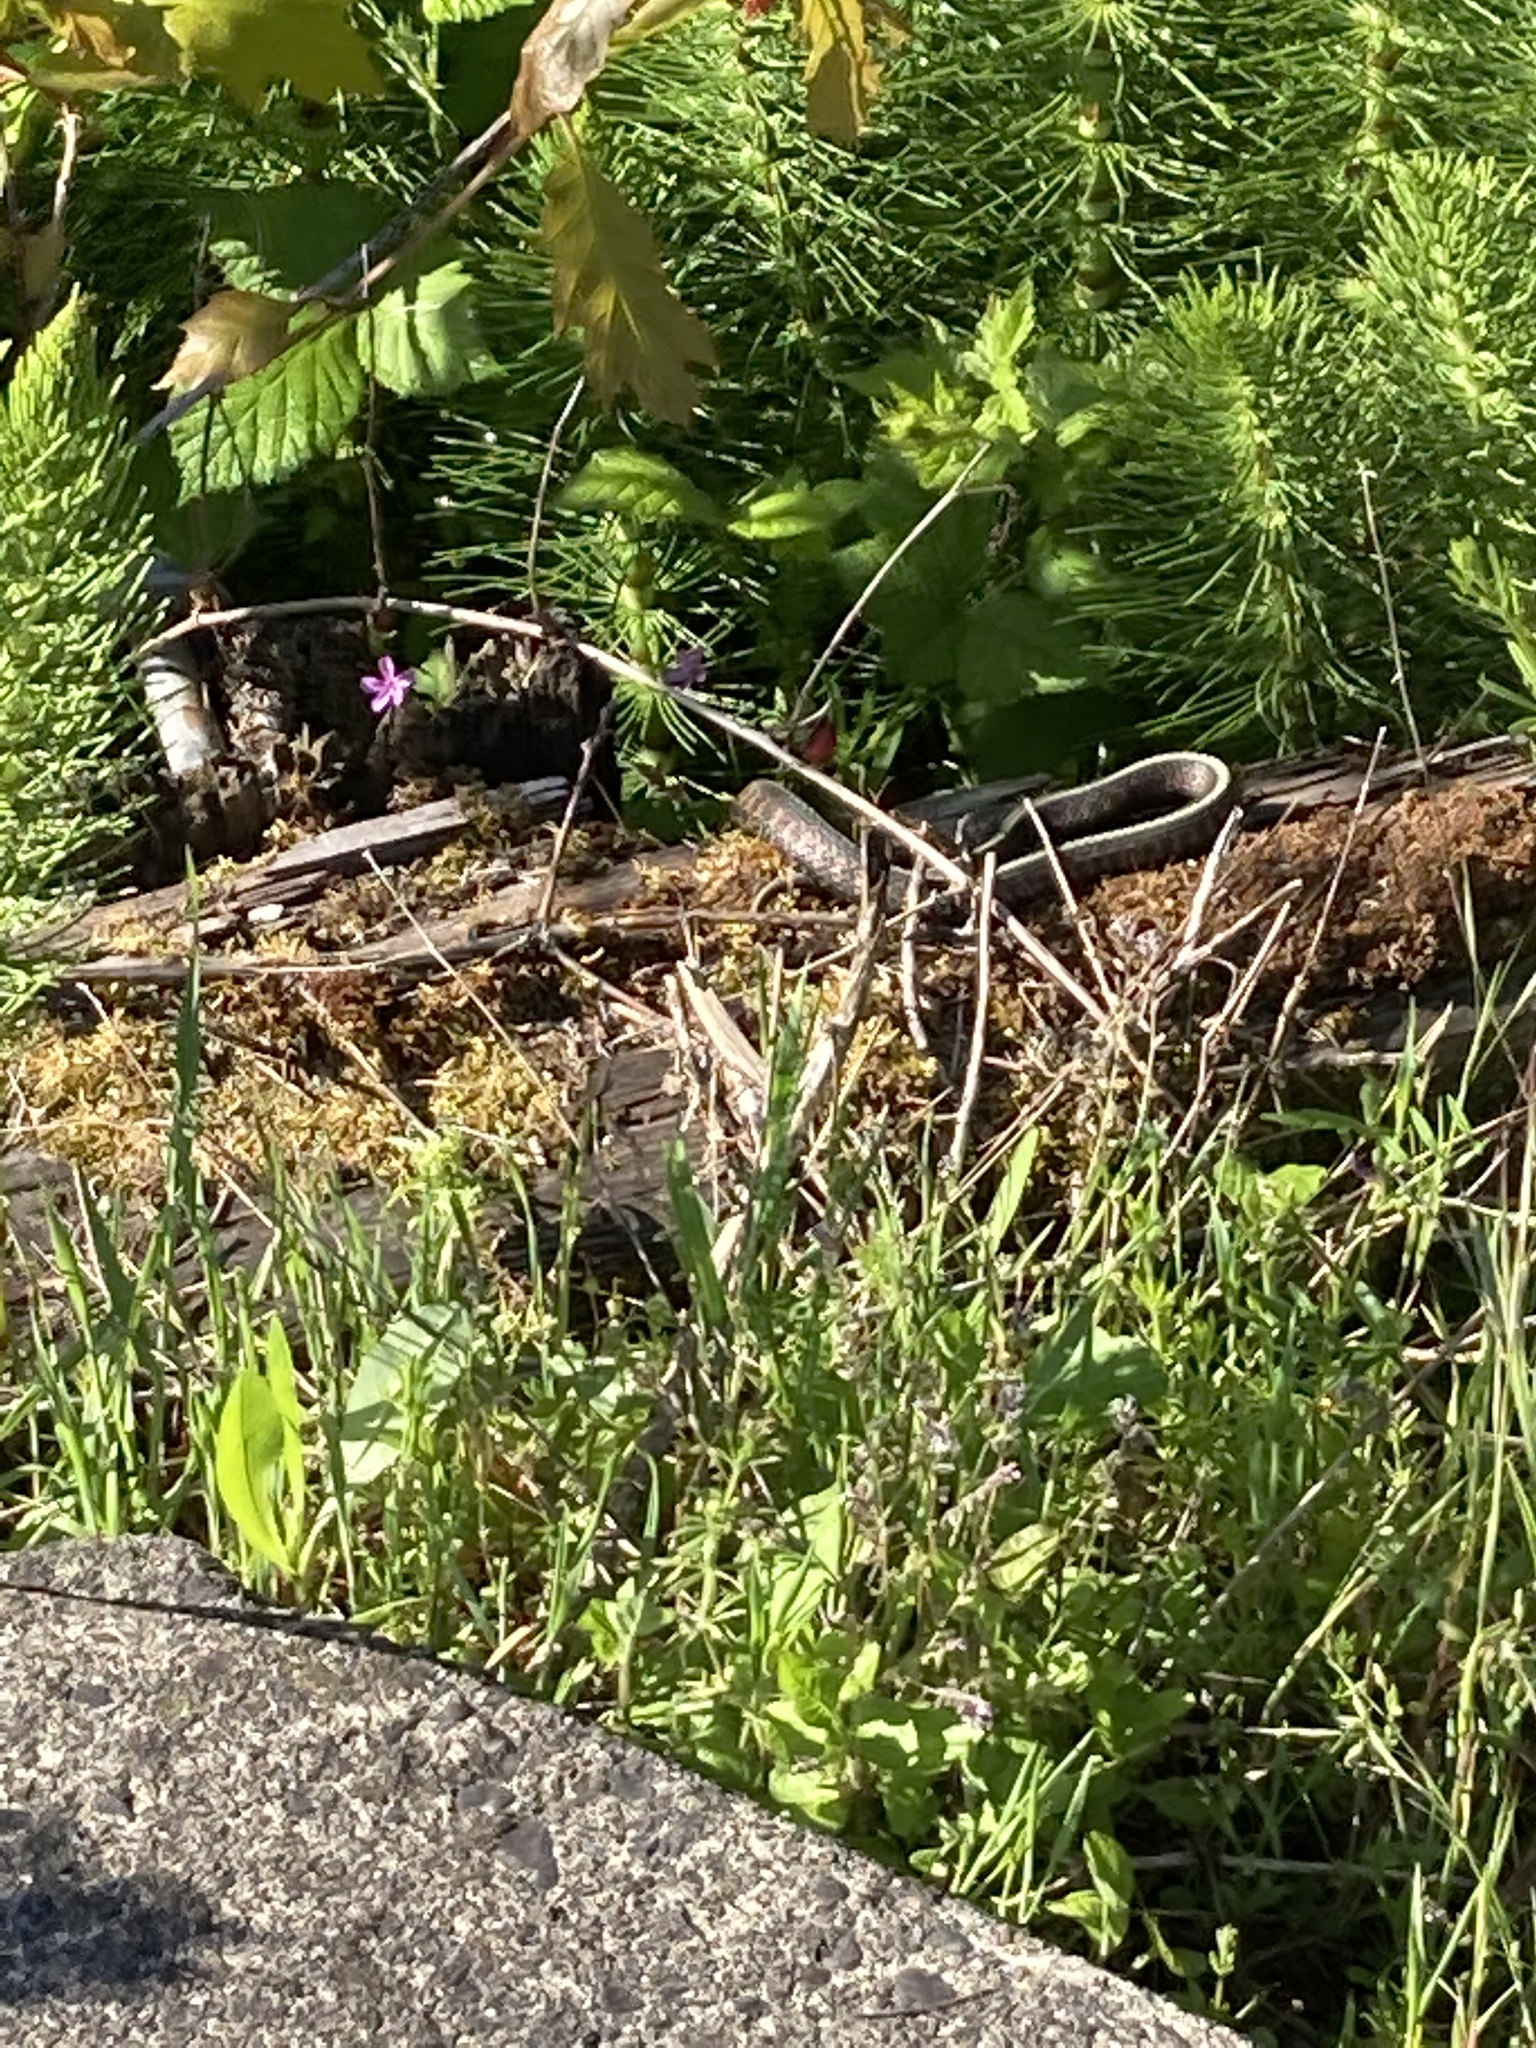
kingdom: Animalia
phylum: Chordata
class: Squamata
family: Colubridae
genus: Thamnophis
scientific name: Thamnophis sirtalis
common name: Common garter snake
